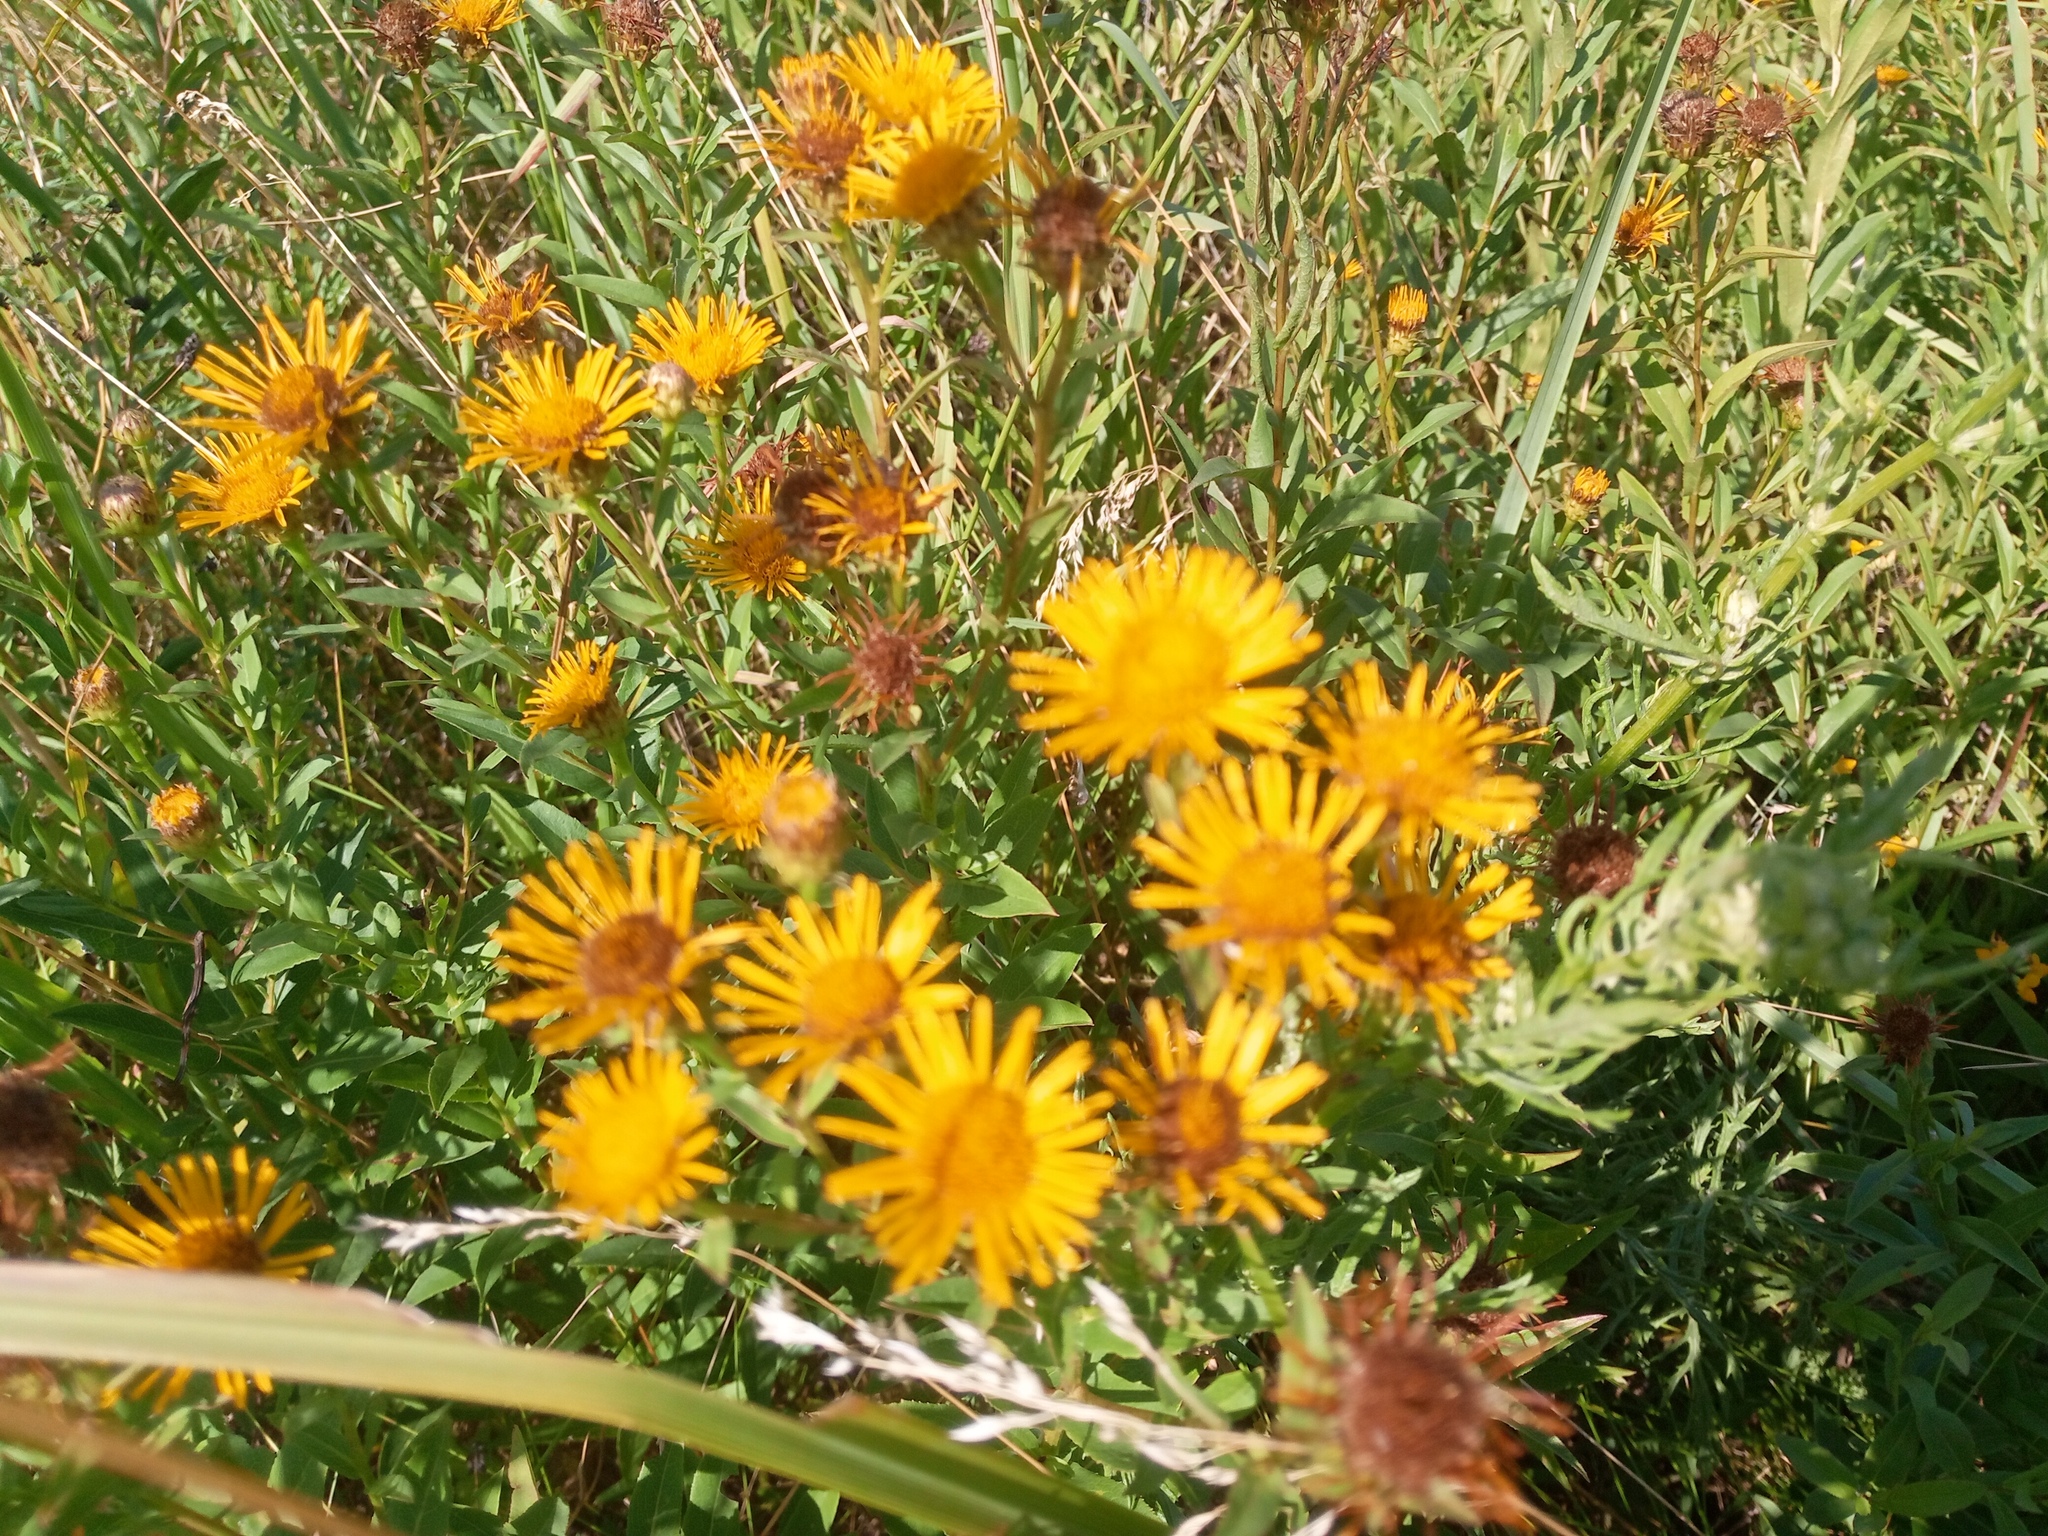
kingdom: Plantae
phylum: Tracheophyta
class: Magnoliopsida
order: Asterales
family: Asteraceae
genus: Pentanema
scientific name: Pentanema asperum
